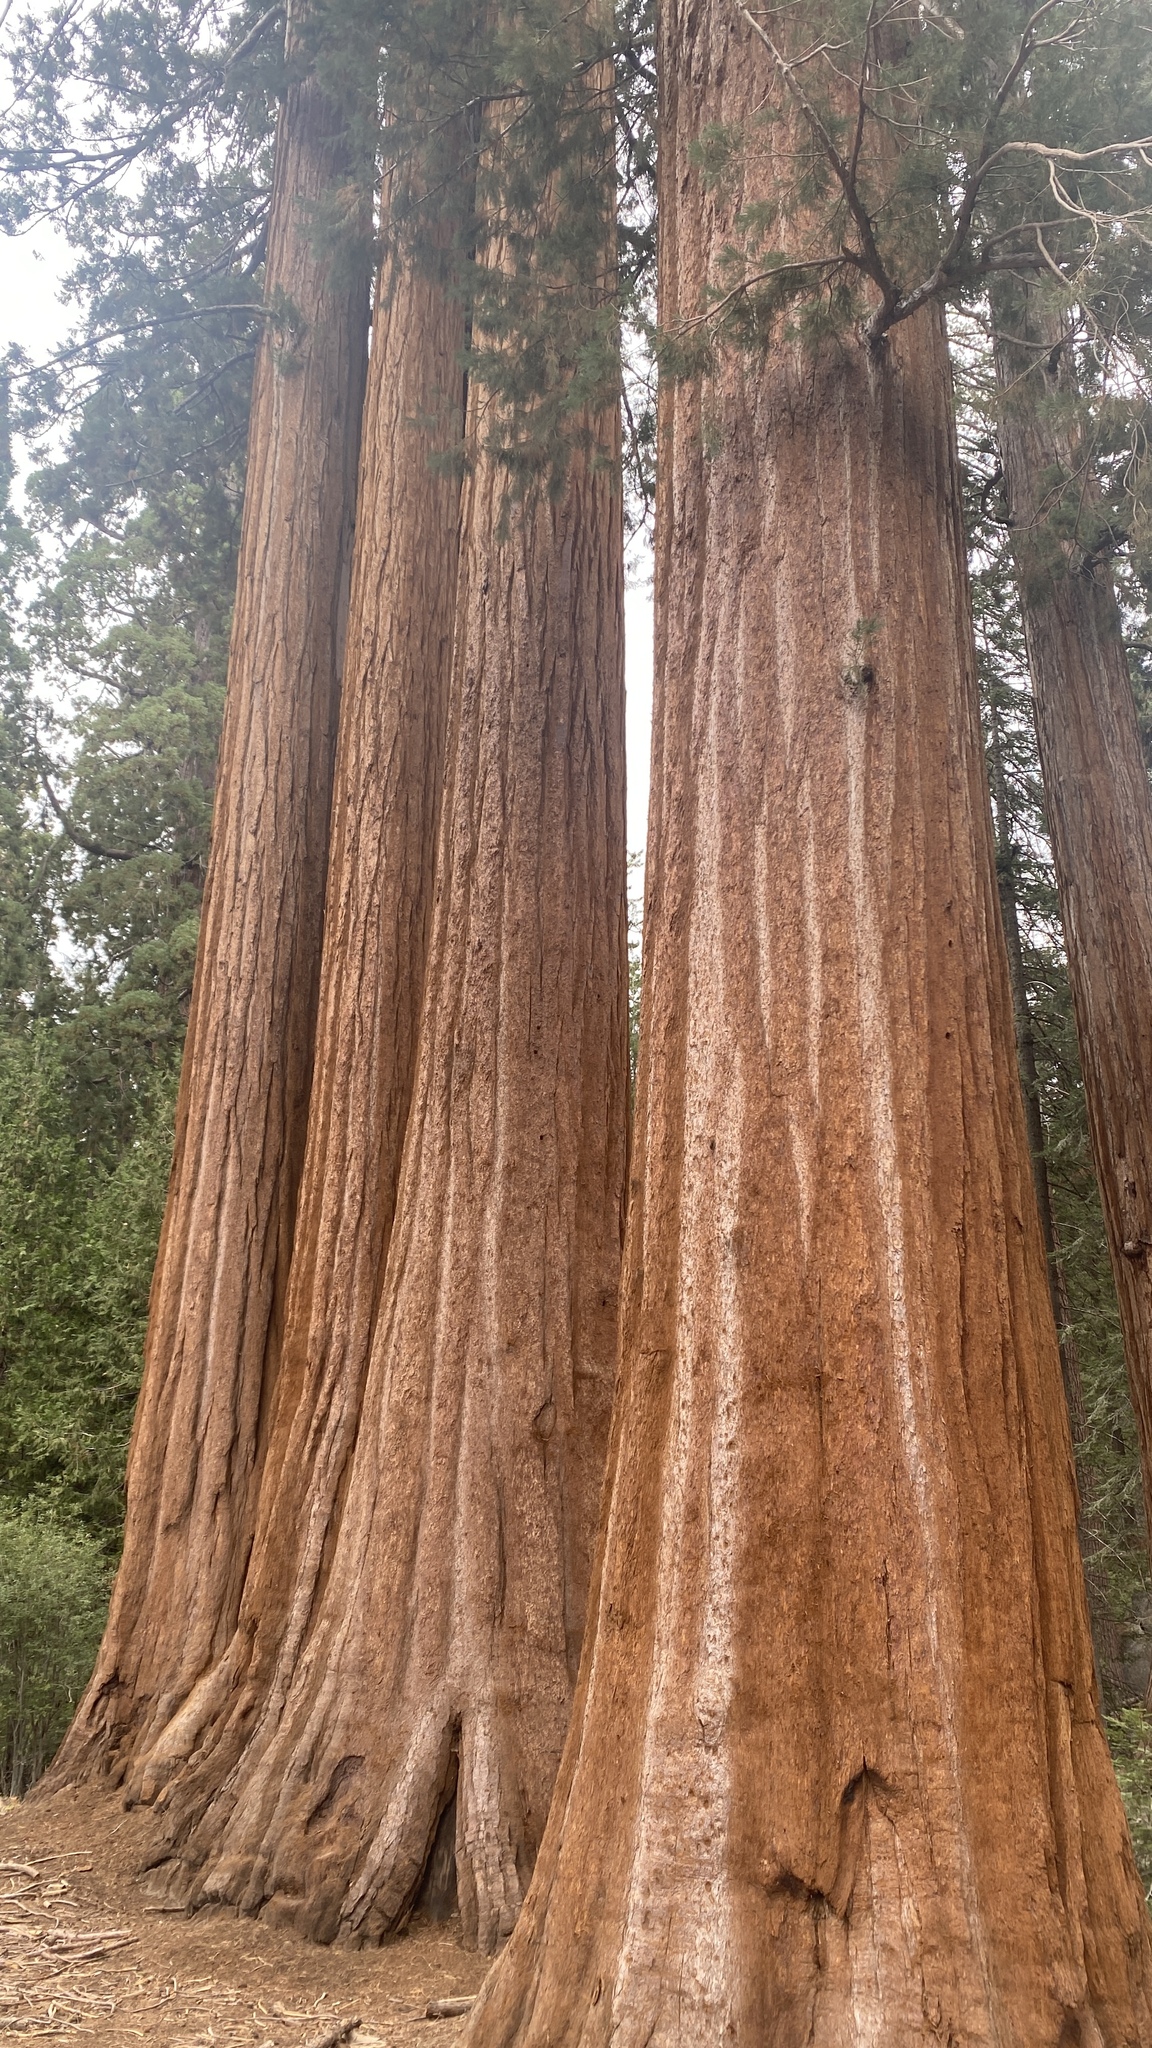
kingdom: Plantae
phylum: Tracheophyta
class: Pinopsida
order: Pinales
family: Cupressaceae
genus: Sequoiadendron
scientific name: Sequoiadendron giganteum
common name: Wellingtonia
